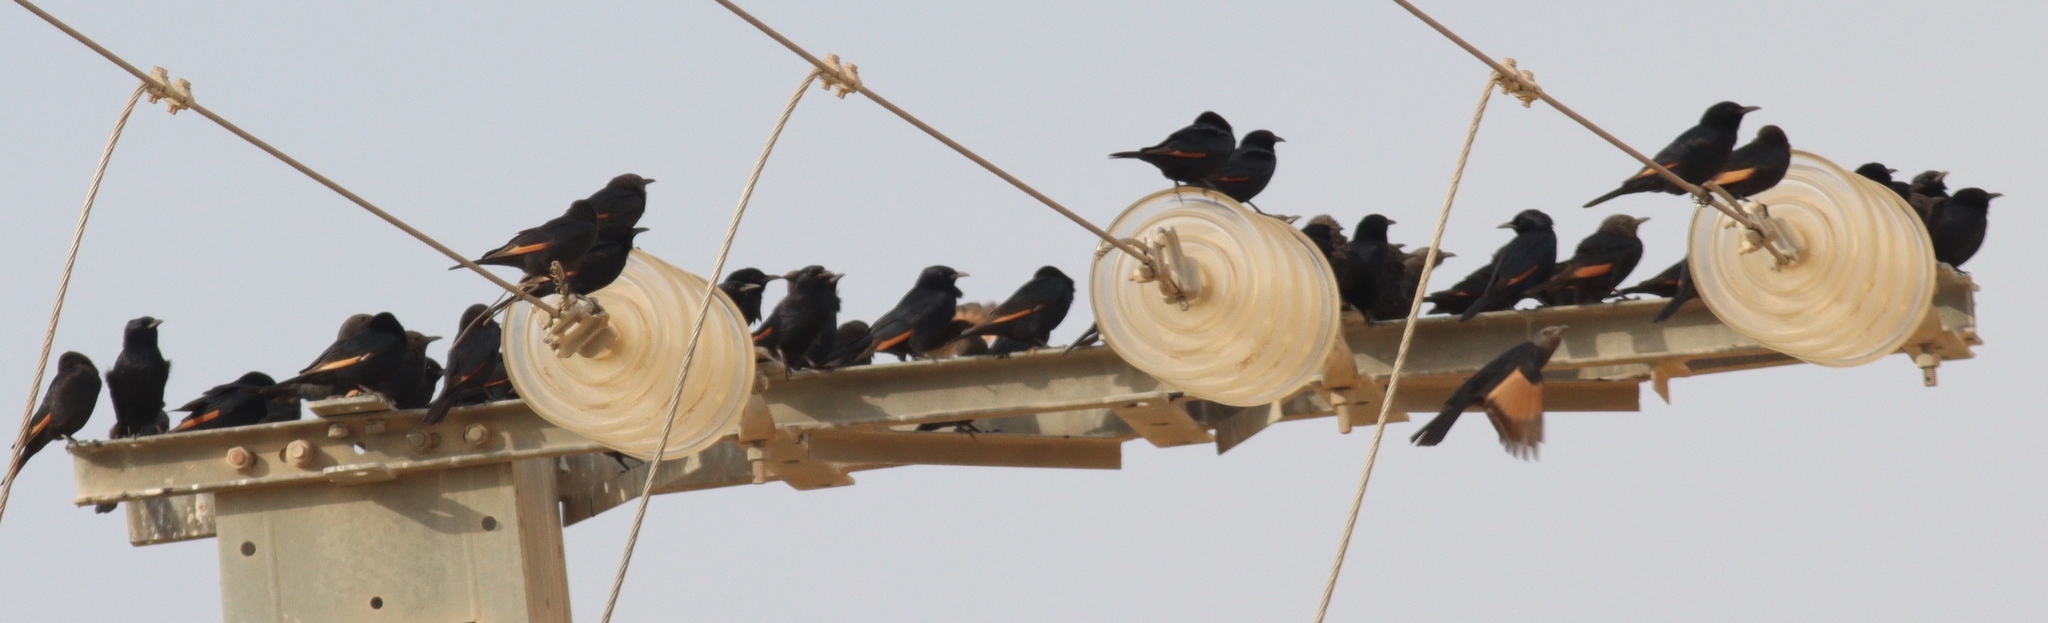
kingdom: Animalia
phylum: Chordata
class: Aves
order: Passeriformes
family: Sturnidae
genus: Onychognathus
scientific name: Onychognathus tristramii
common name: Tristram's starling
